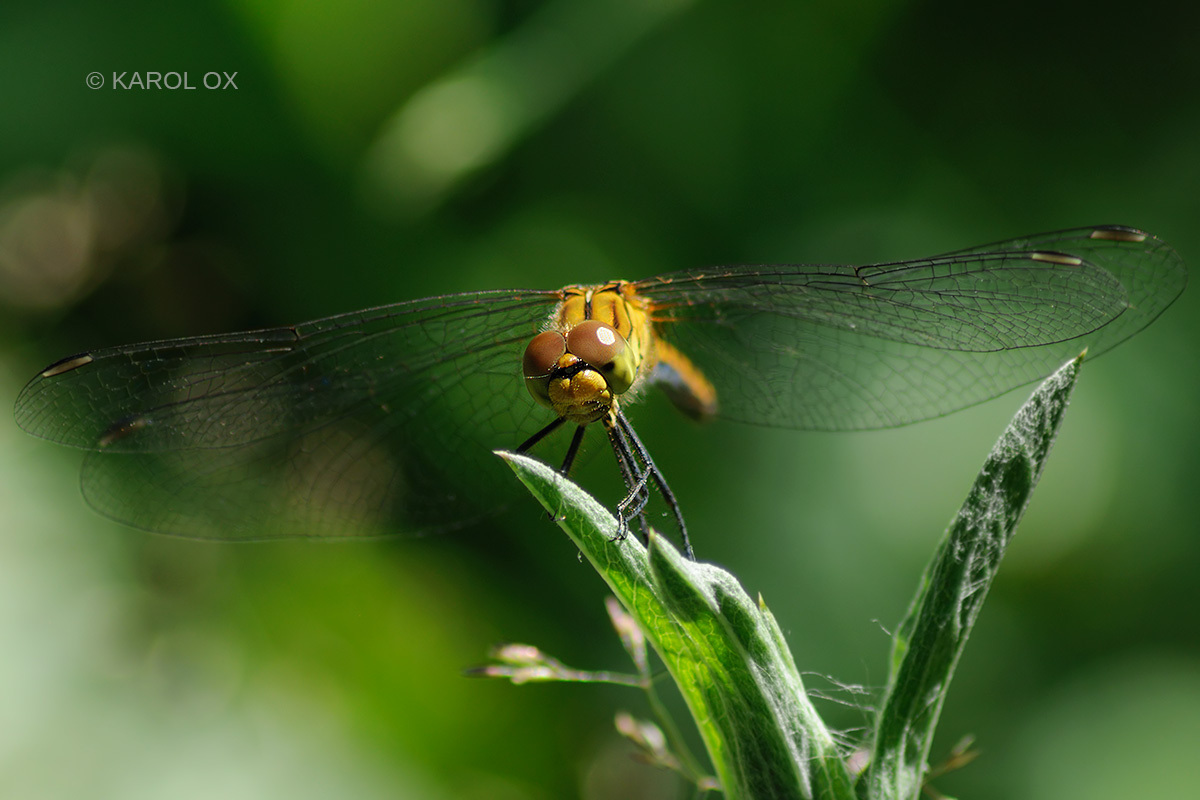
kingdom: Animalia
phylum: Arthropoda
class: Insecta
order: Odonata
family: Libellulidae
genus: Sympetrum
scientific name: Sympetrum sanguineum
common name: Ruddy darter
